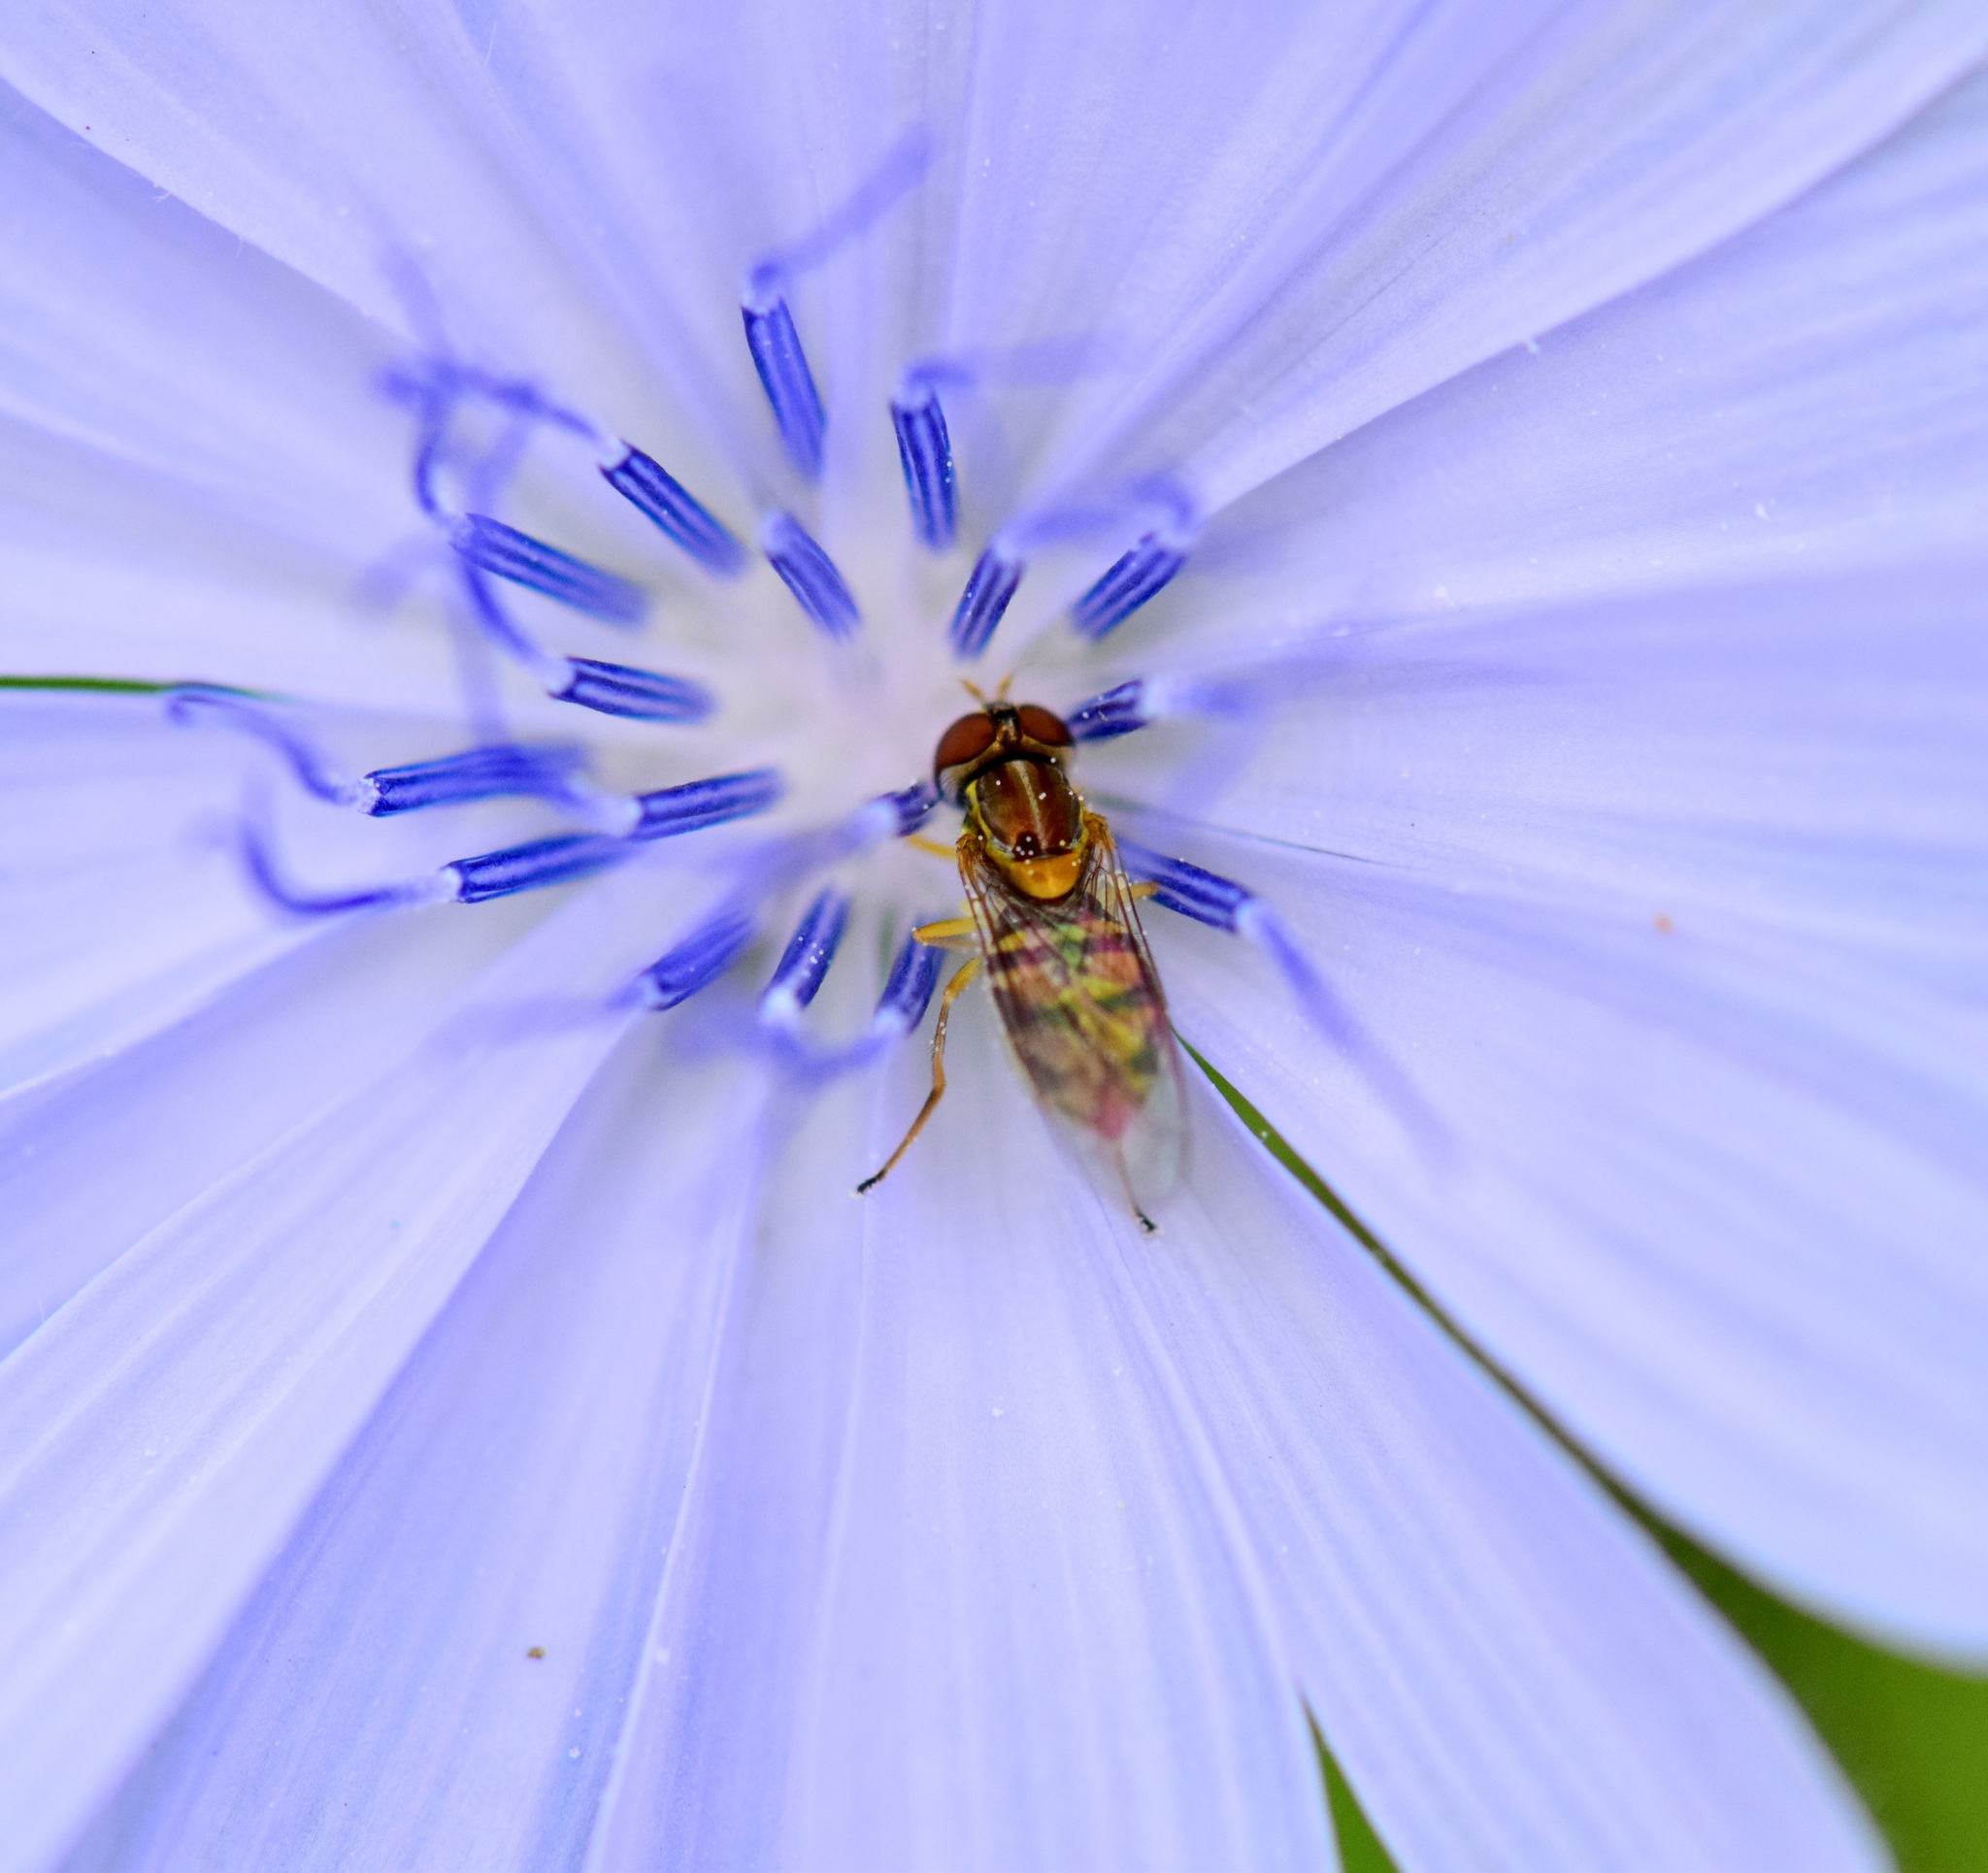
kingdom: Animalia
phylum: Arthropoda
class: Insecta
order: Diptera
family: Syrphidae
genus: Toxomerus
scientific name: Toxomerus marginatus
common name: Syrphid fly
